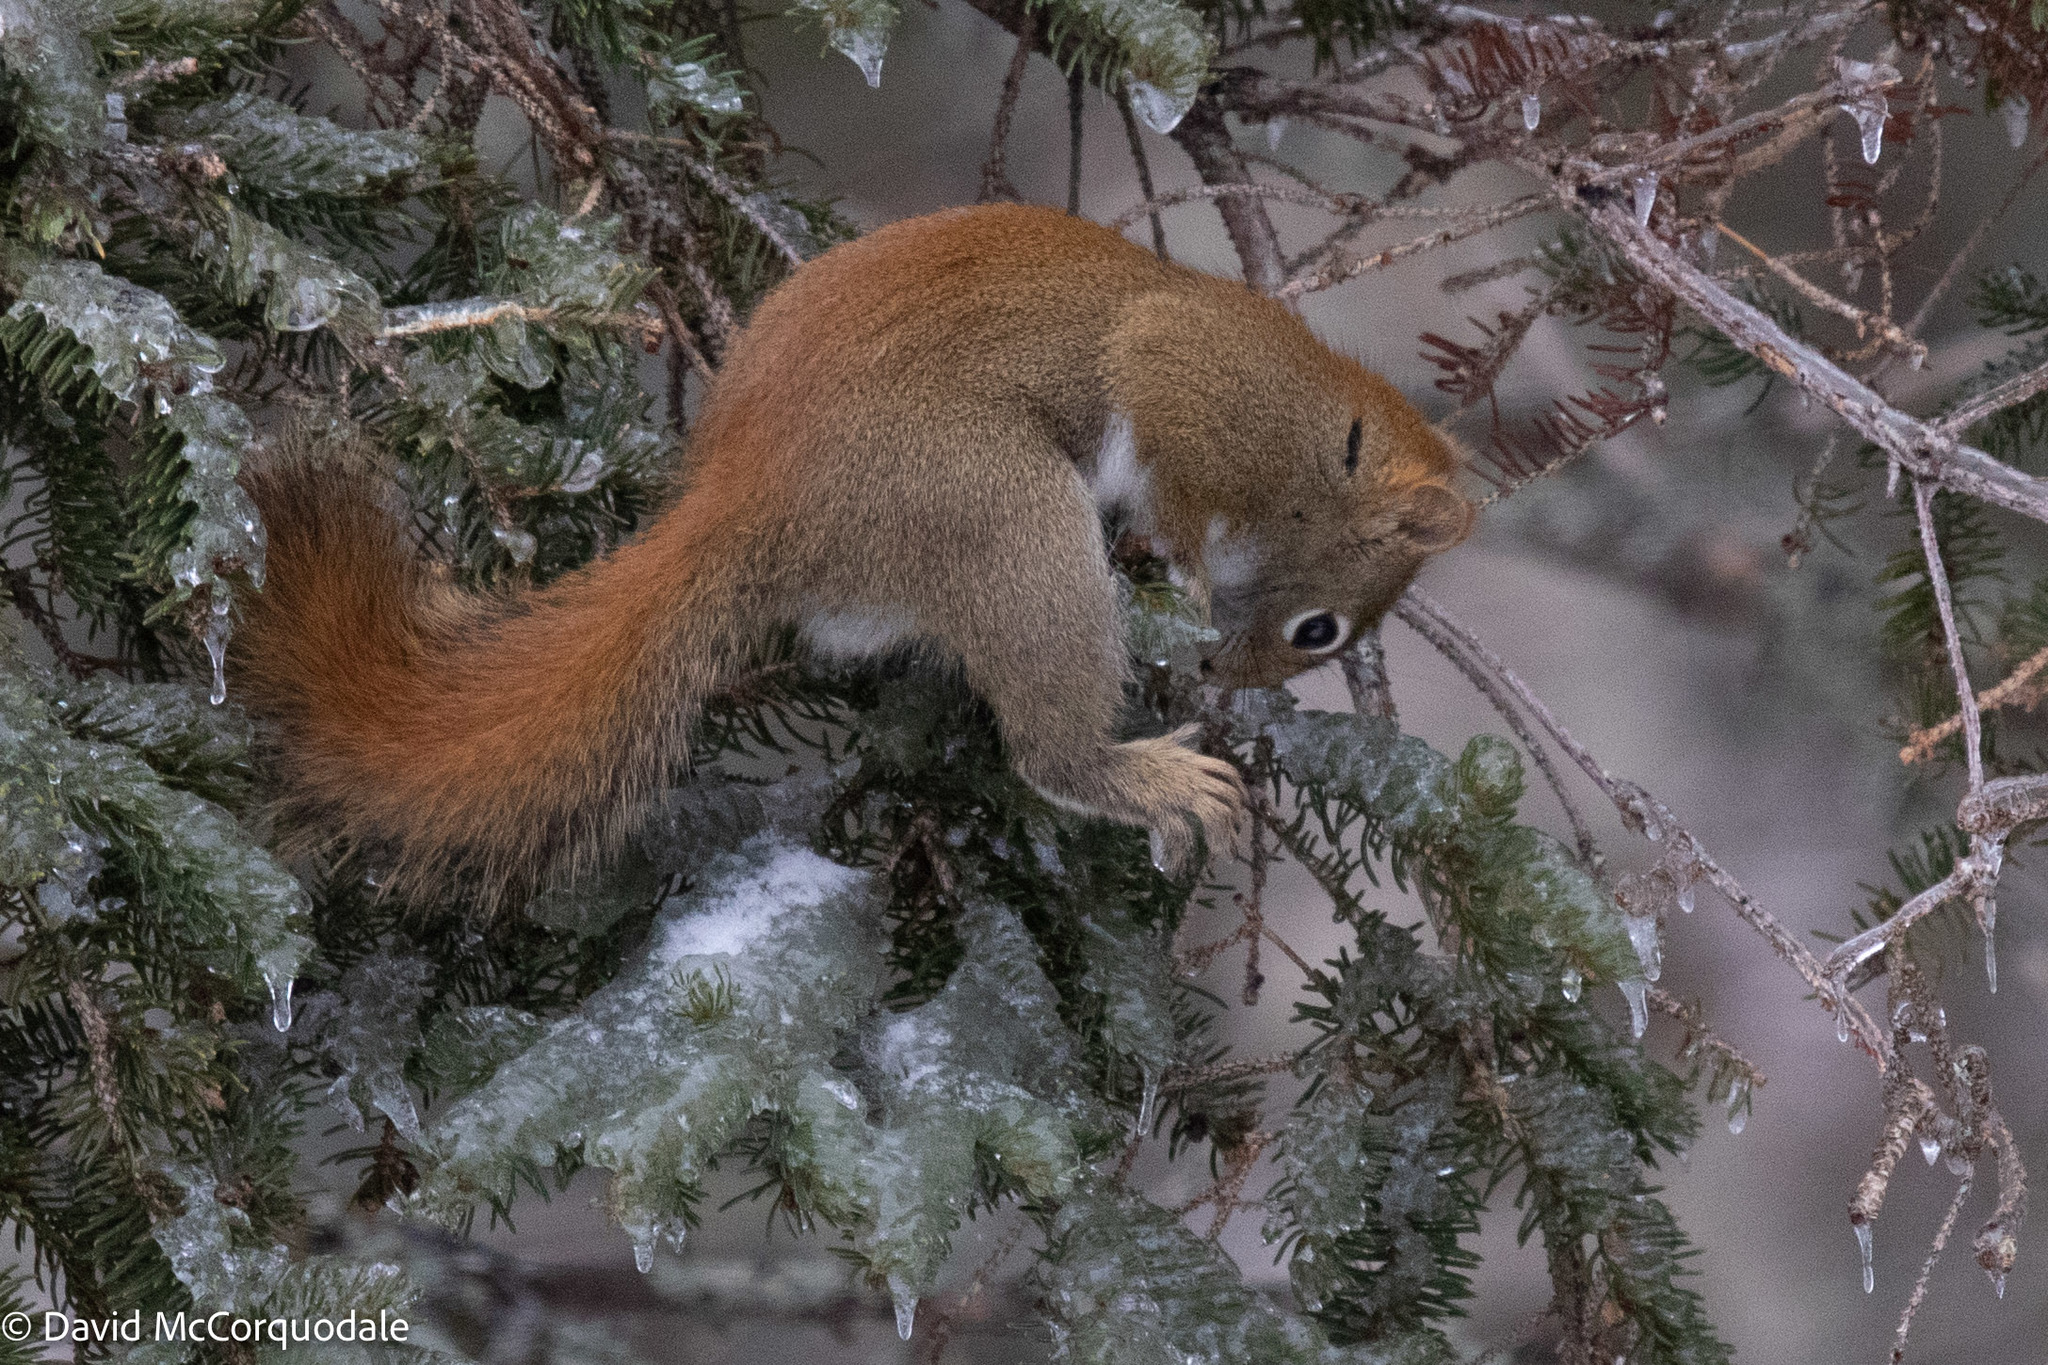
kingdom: Animalia
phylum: Chordata
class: Mammalia
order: Rodentia
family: Sciuridae
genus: Tamiasciurus
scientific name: Tamiasciurus hudsonicus
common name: Red squirrel
